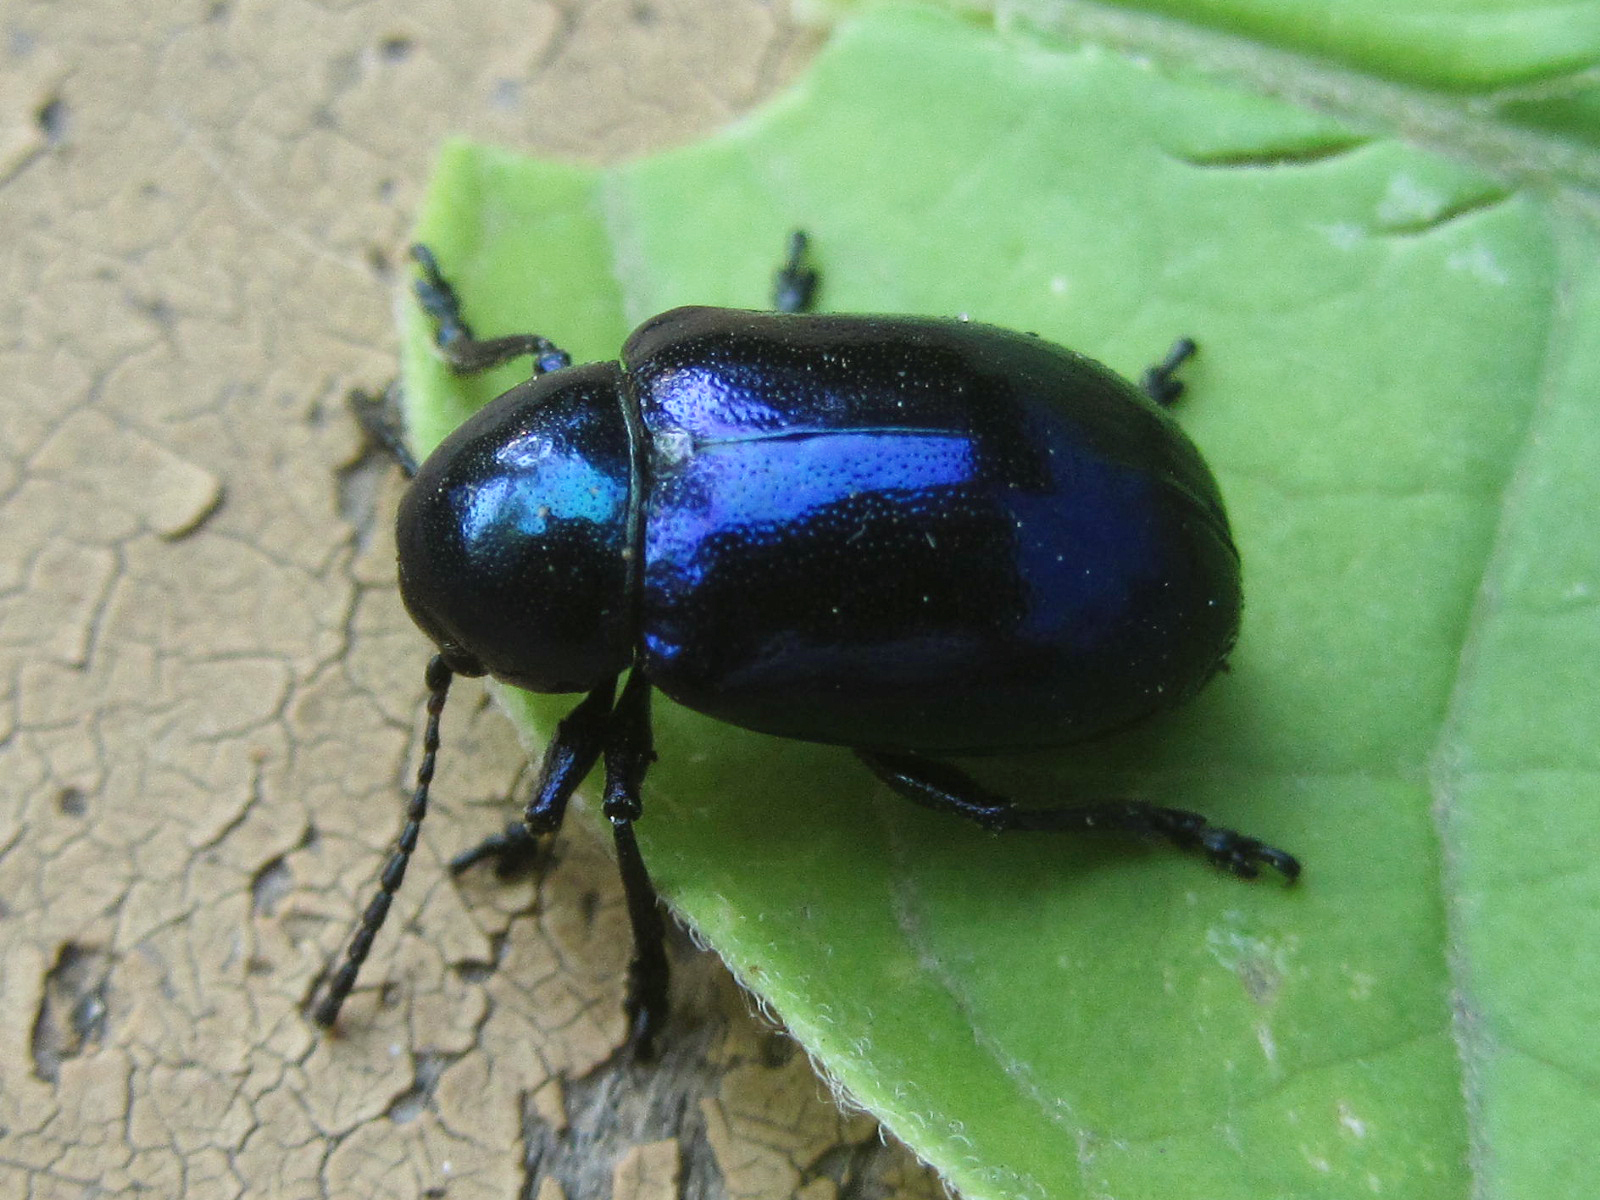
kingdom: Animalia
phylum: Arthropoda
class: Insecta
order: Coleoptera
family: Chrysomelidae
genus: Chrysochus
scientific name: Chrysochus asclepiadeus
